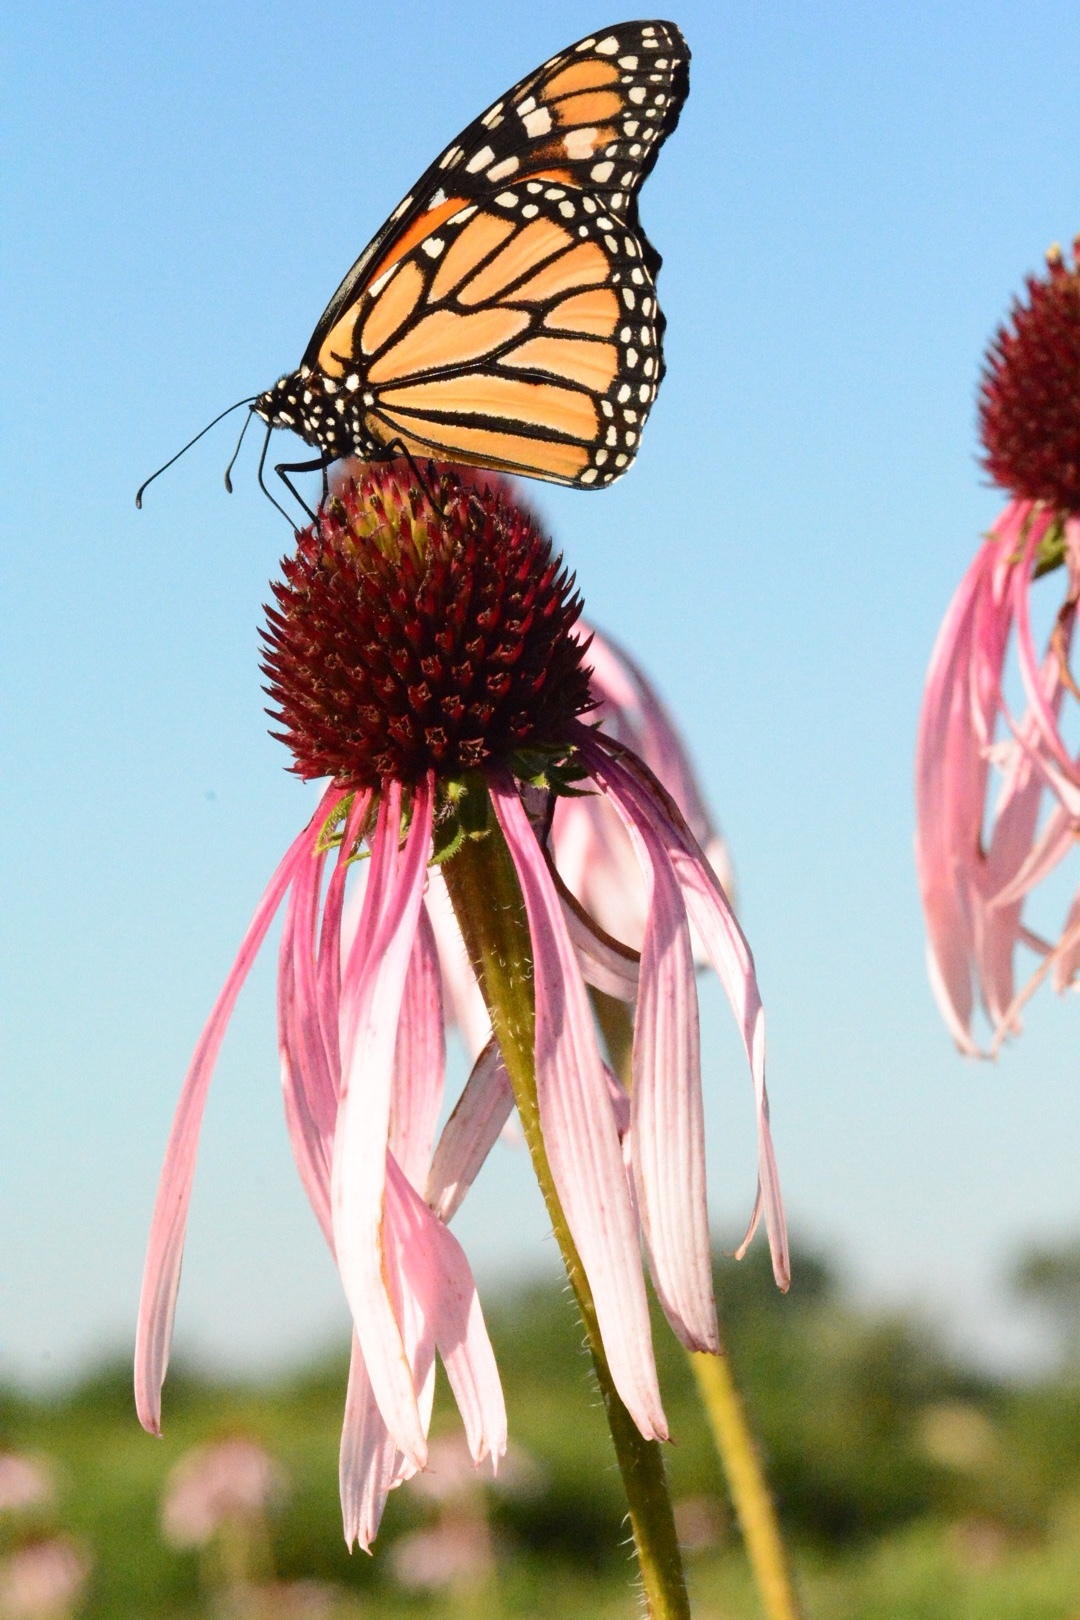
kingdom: Plantae
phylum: Tracheophyta
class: Magnoliopsida
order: Asterales
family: Asteraceae
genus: Echinacea
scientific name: Echinacea pallida
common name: Pale echinacea
